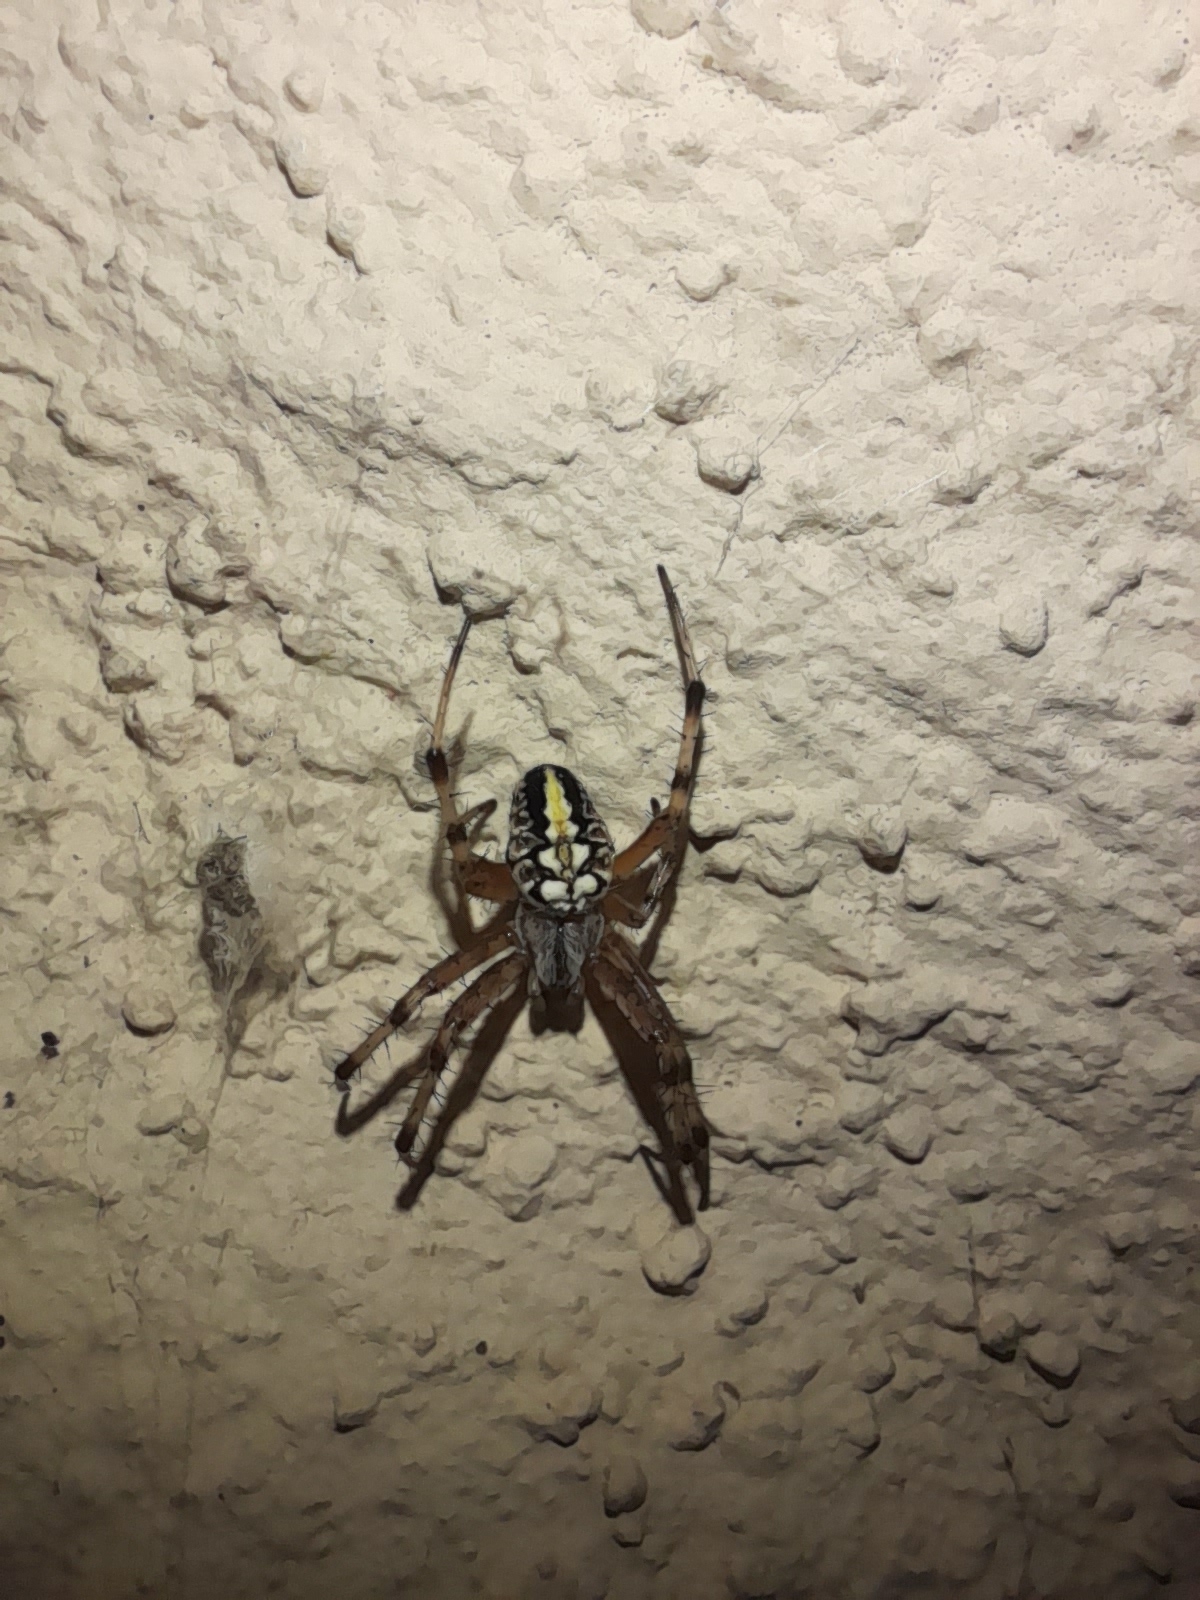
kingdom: Animalia
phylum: Arthropoda
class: Arachnida
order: Araneae
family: Araneidae
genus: Neoscona
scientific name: Neoscona adianta
